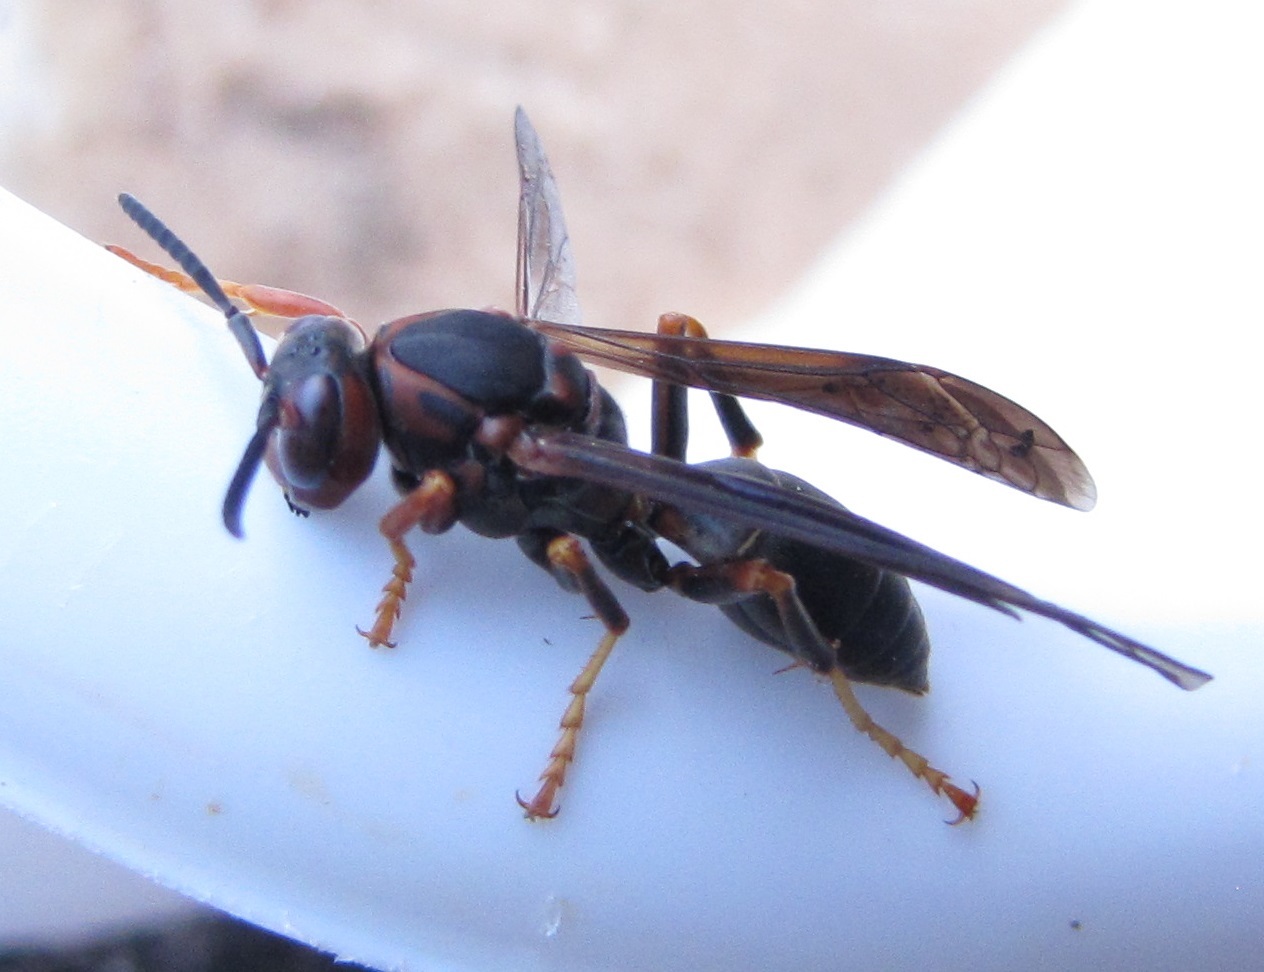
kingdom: Animalia
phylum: Arthropoda
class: Insecta
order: Hymenoptera
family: Eumenidae
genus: Polistes
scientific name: Polistes fuscatus
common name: Dark paper wasp
